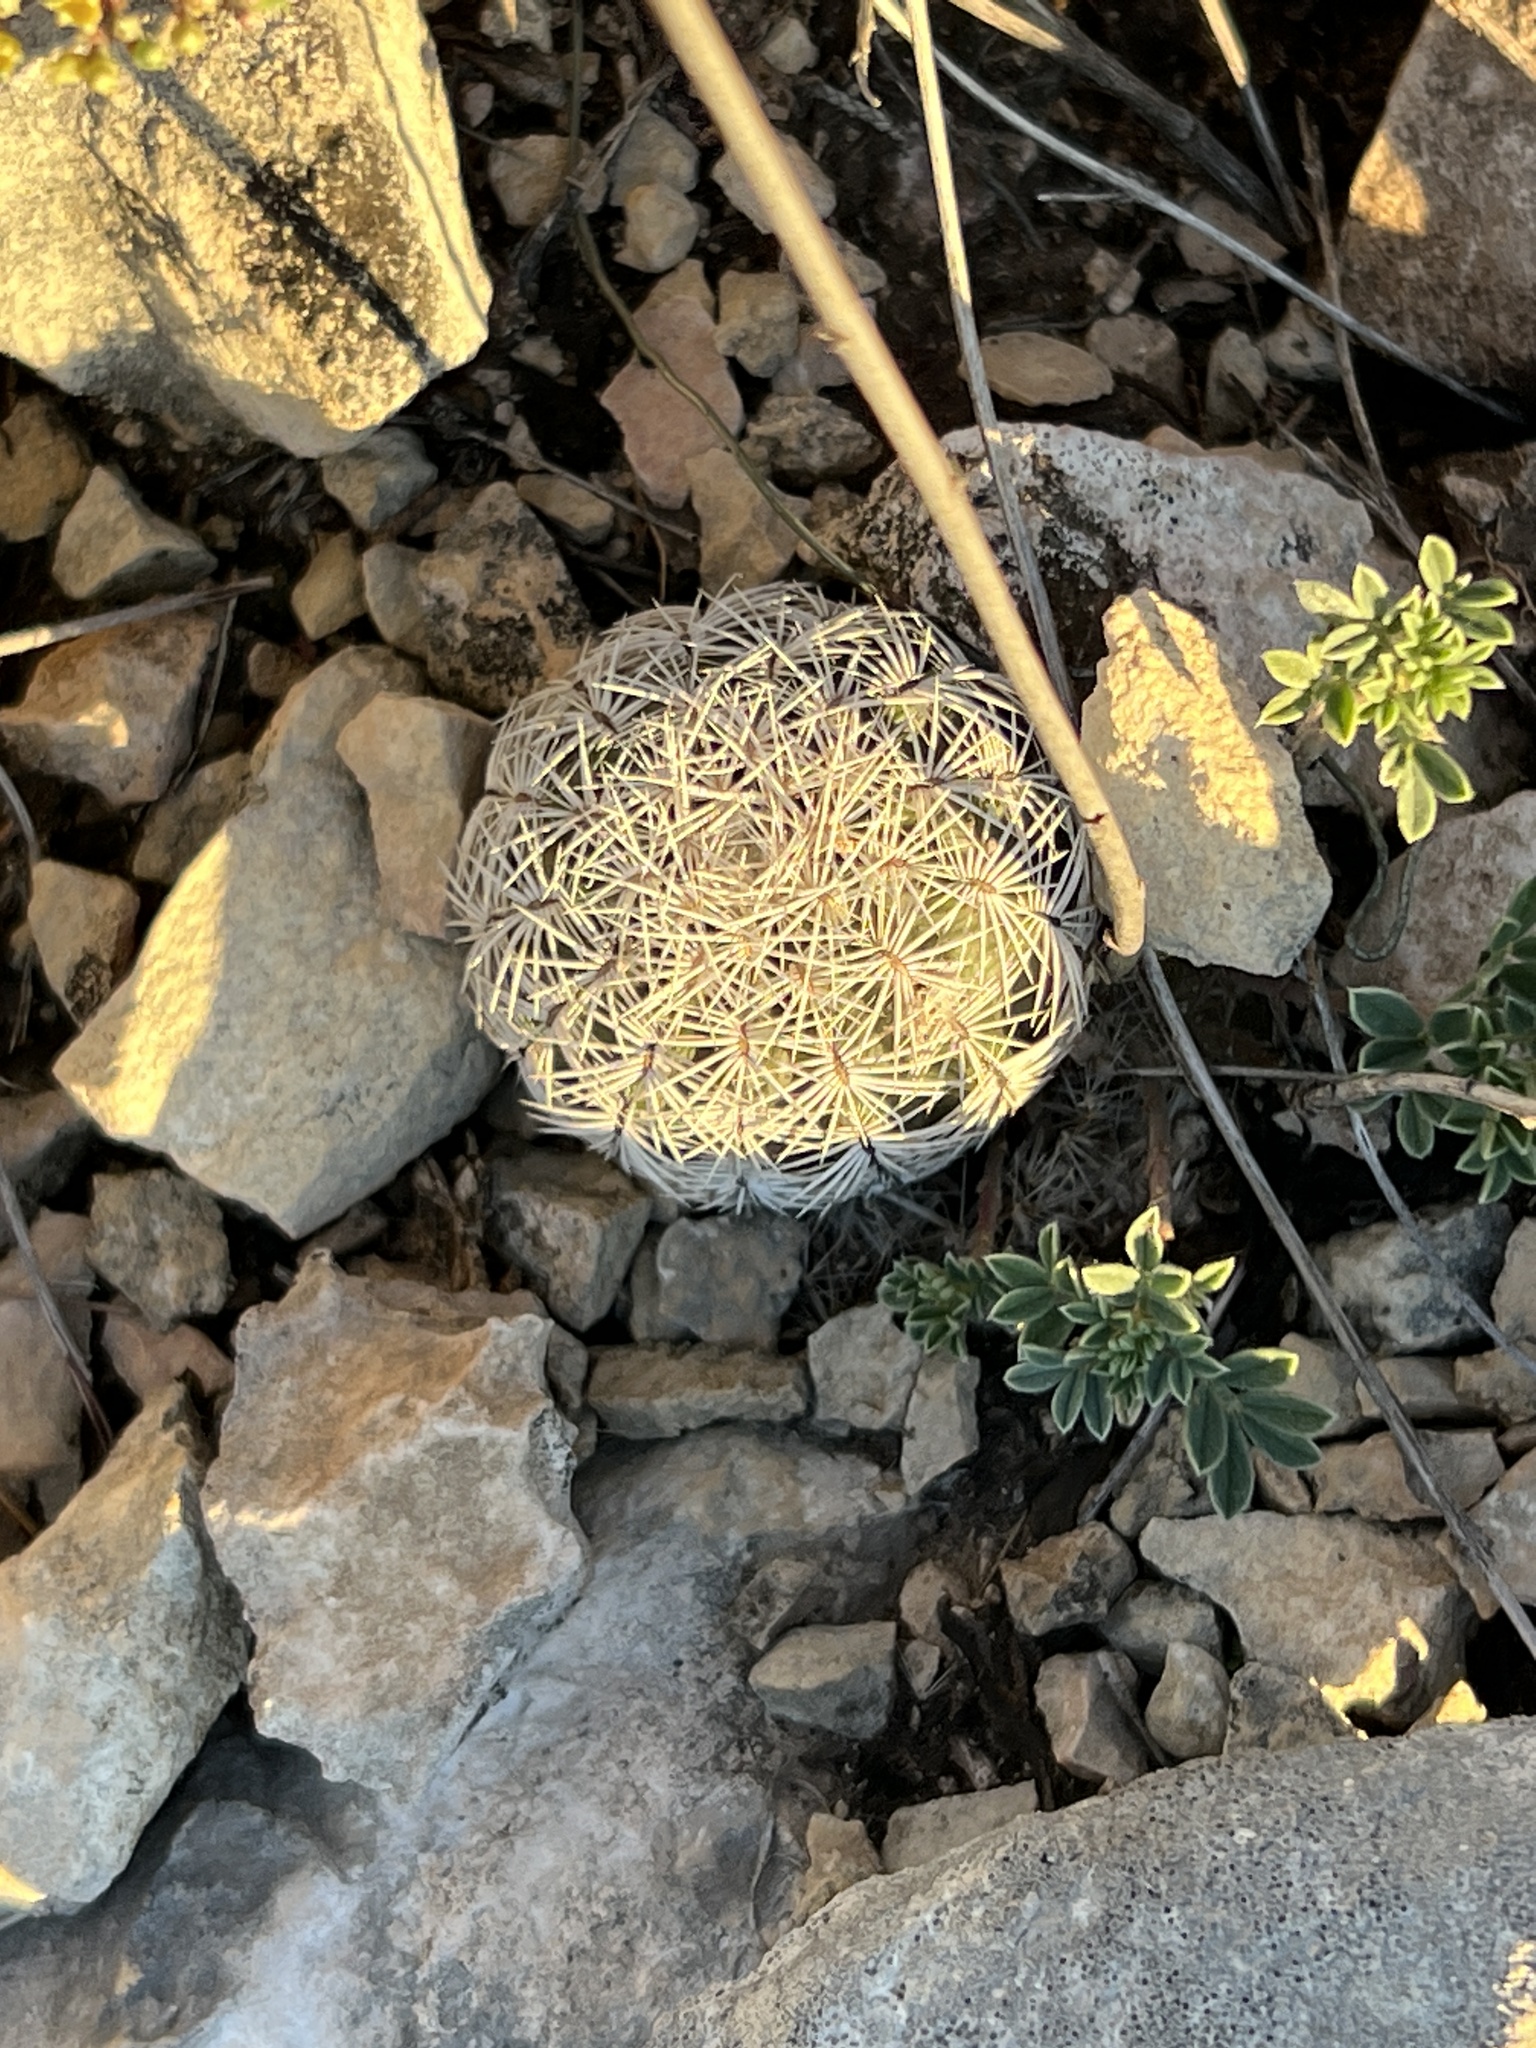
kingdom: Plantae
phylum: Tracheophyta
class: Magnoliopsida
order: Caryophyllales
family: Cactaceae
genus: Echinocereus
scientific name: Echinocereus reichenbachii
